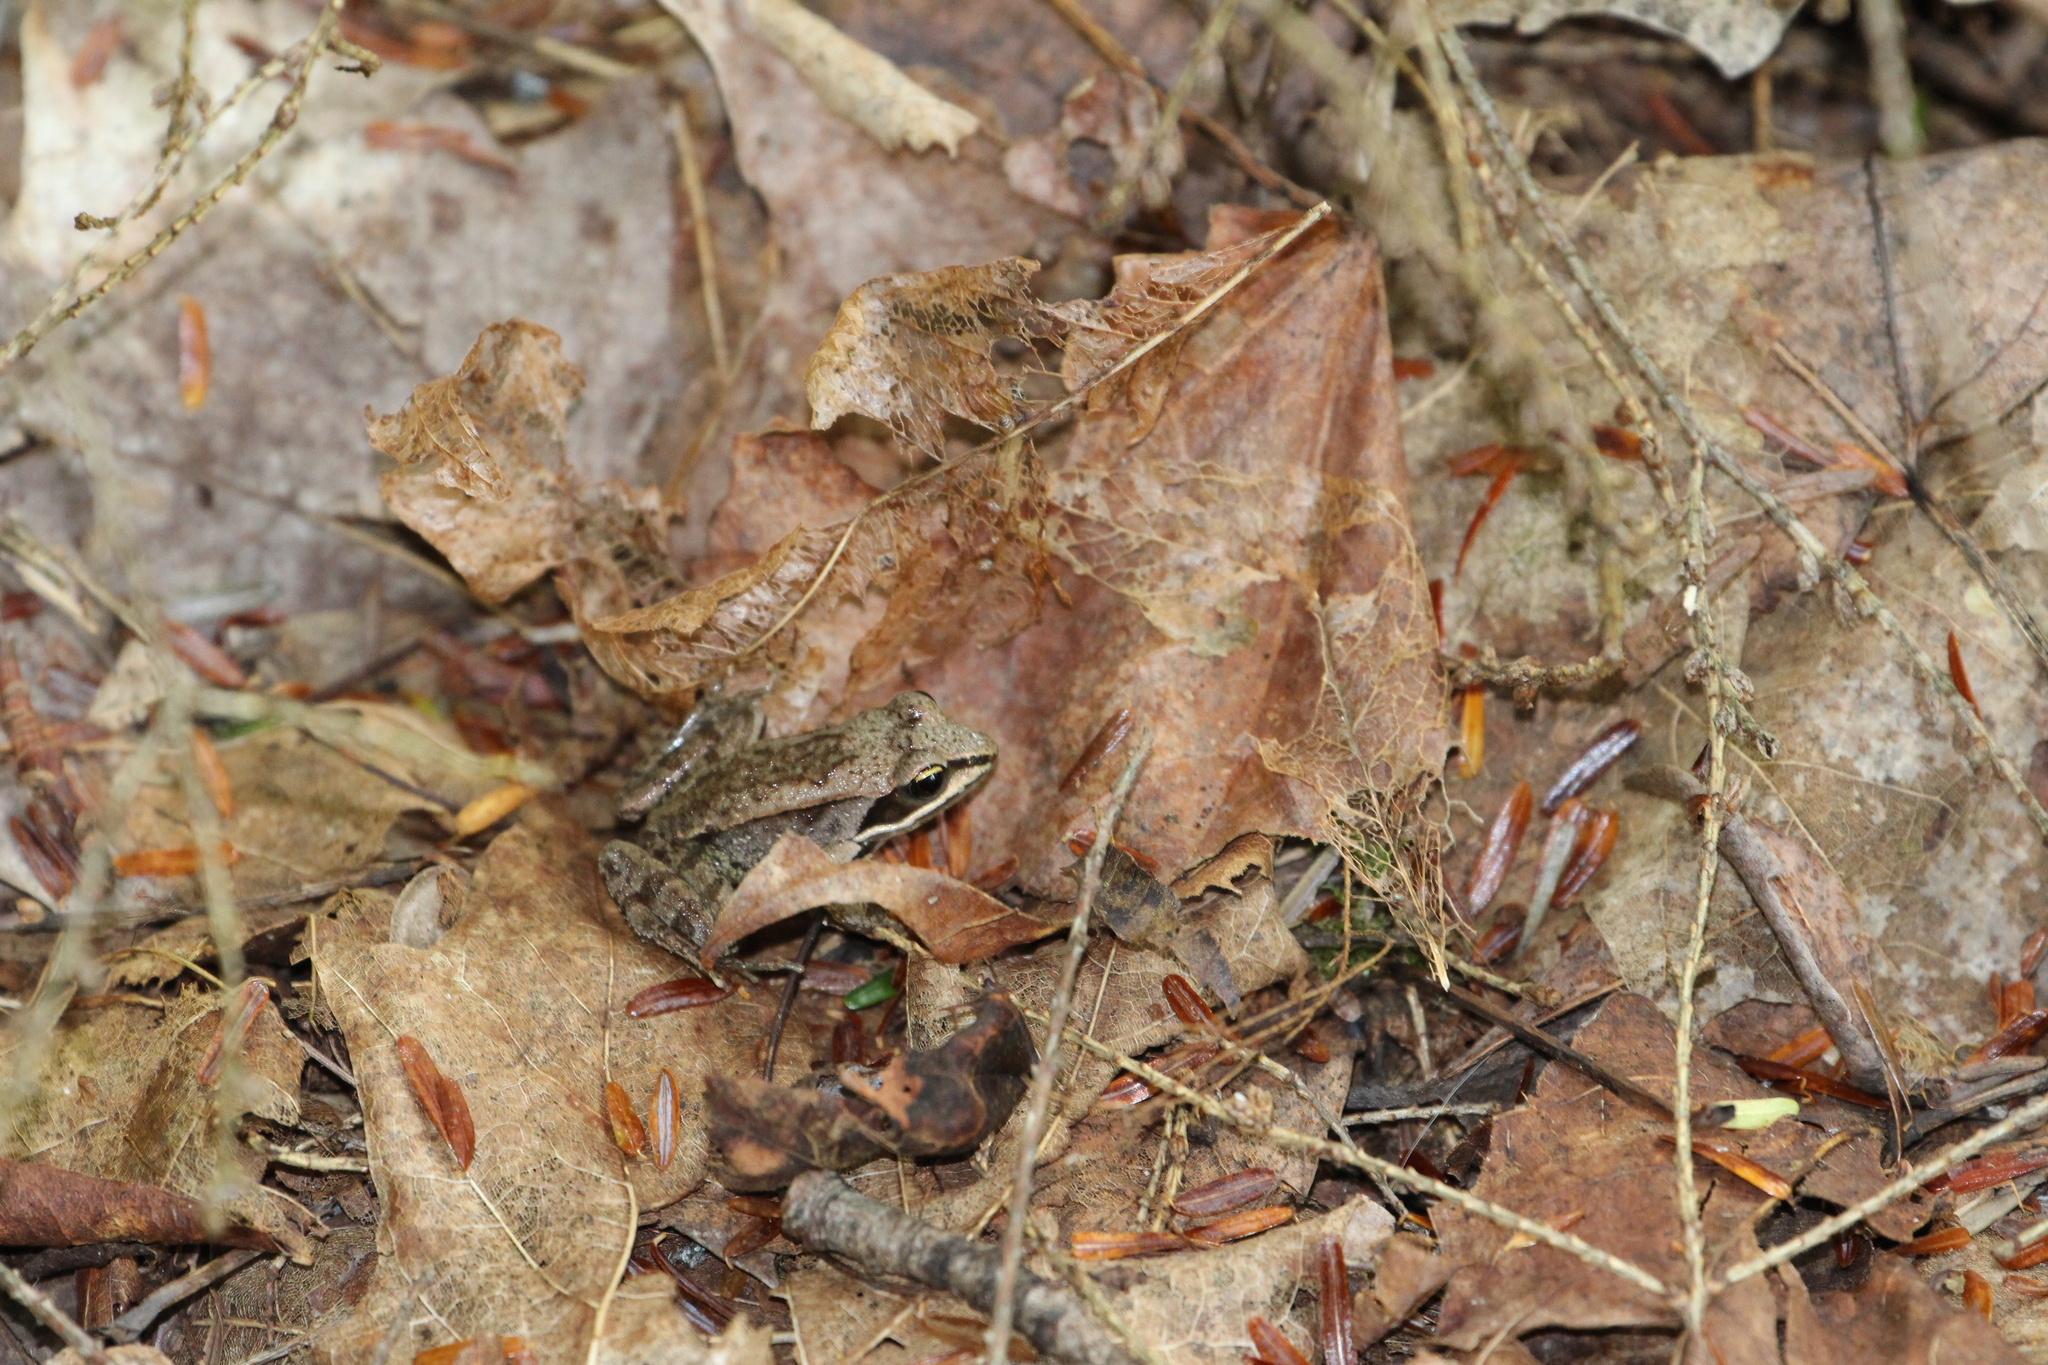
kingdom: Animalia
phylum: Chordata
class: Amphibia
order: Anura
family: Ranidae
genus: Lithobates
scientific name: Lithobates sylvaticus
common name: Wood frog
